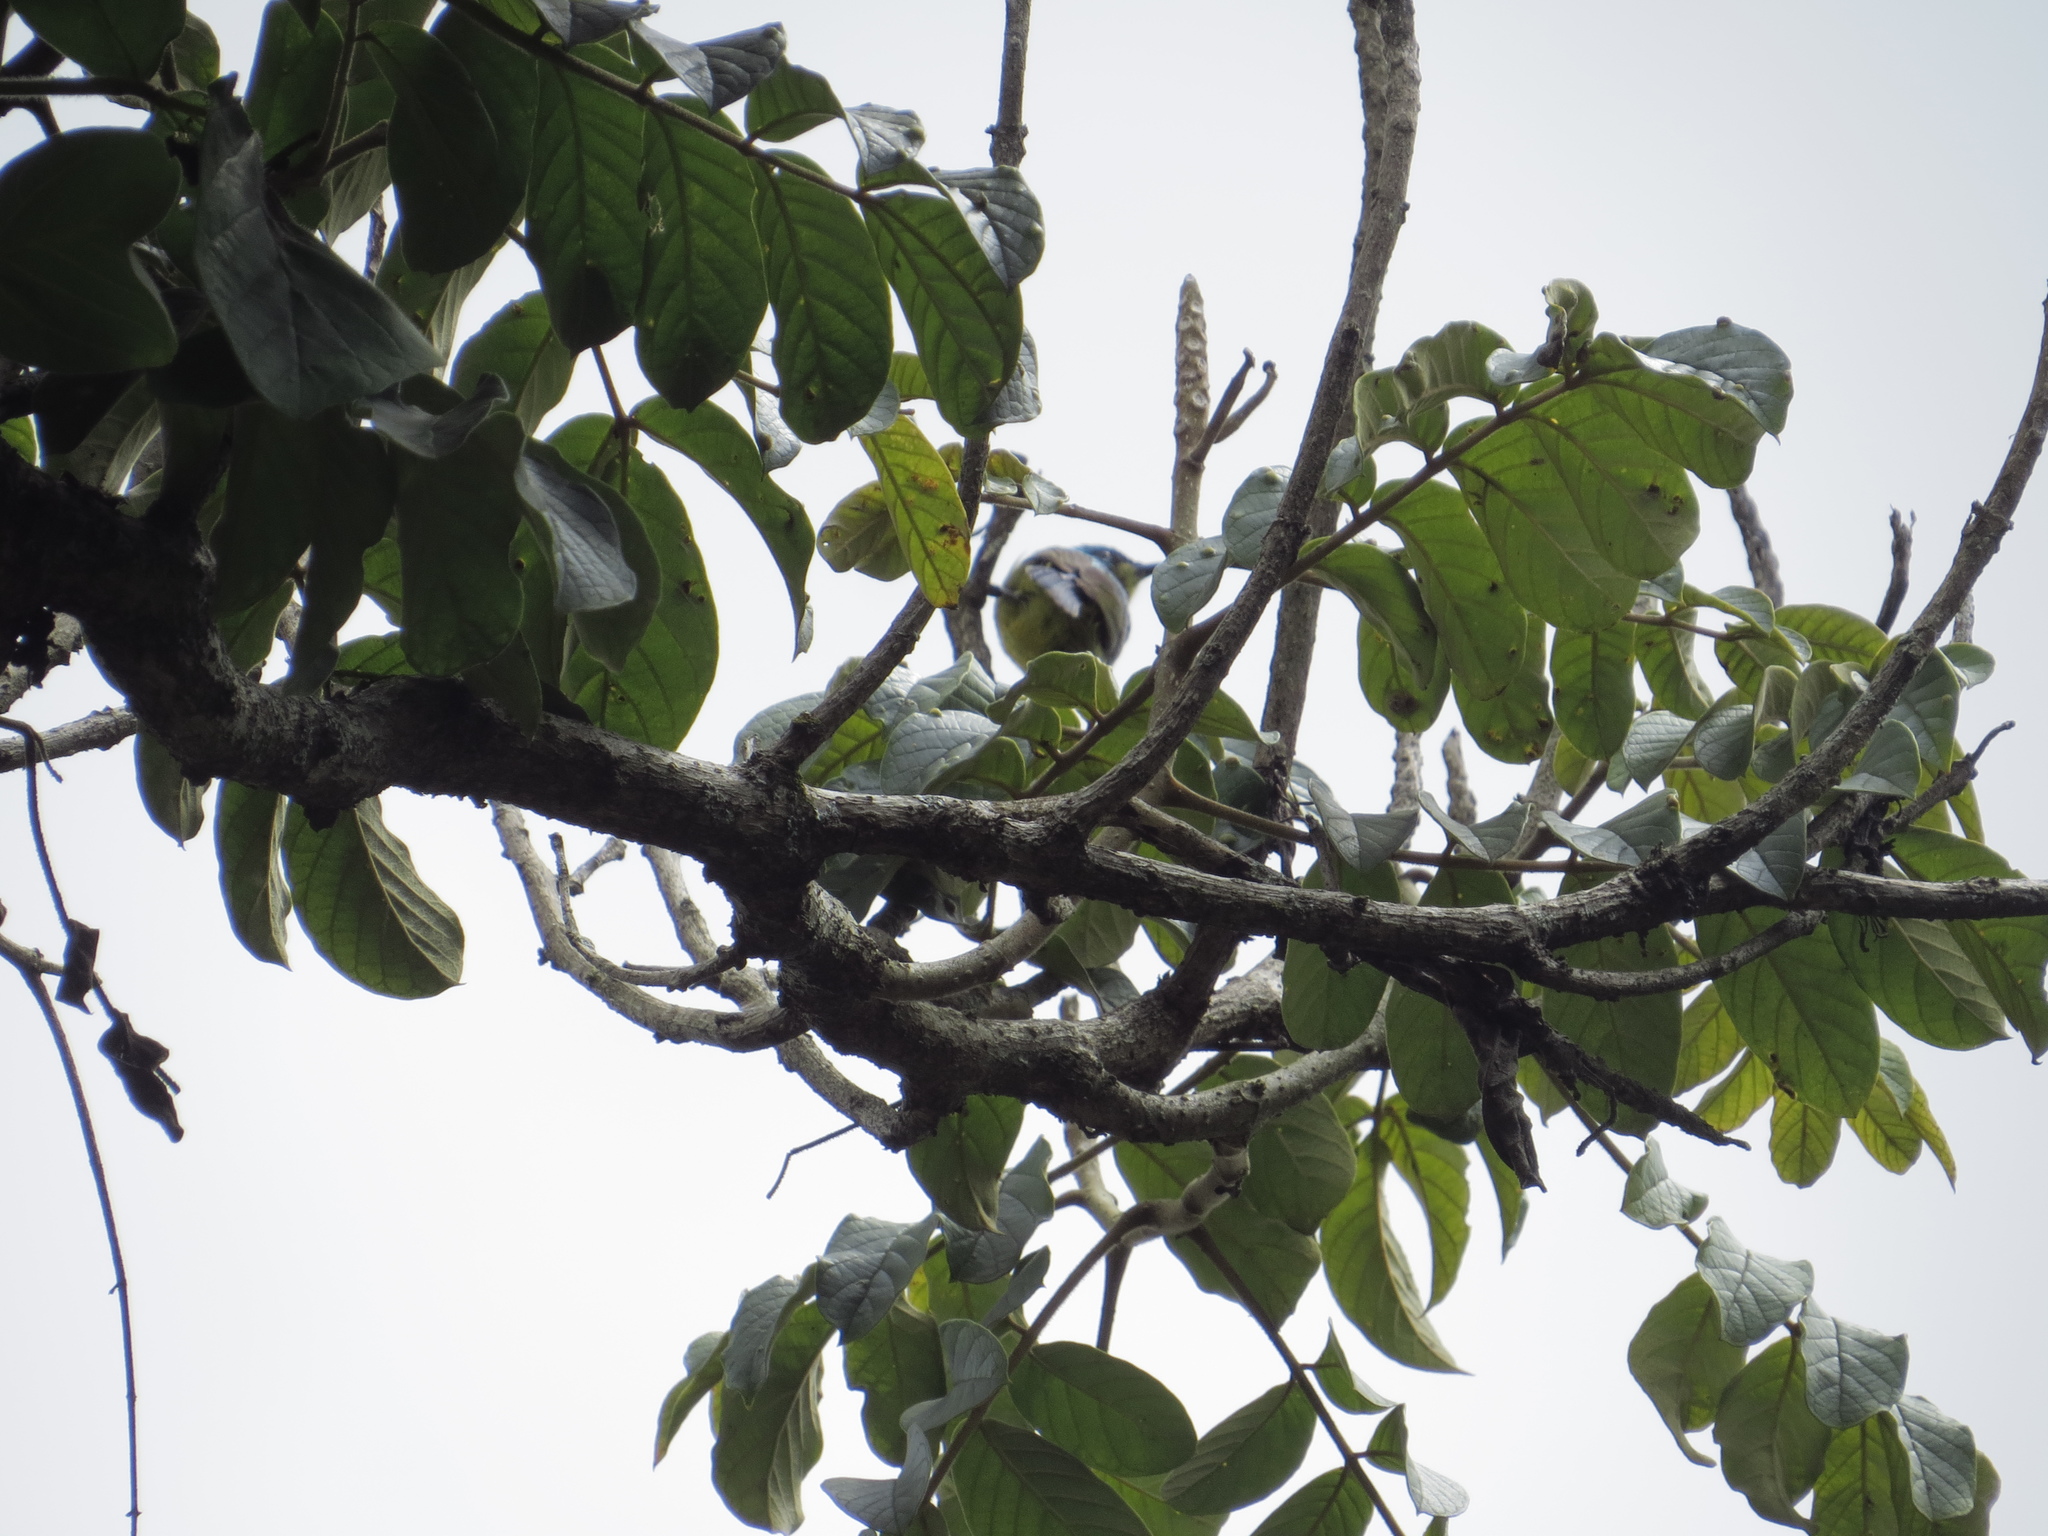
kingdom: Animalia
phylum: Chordata
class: Aves
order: Passeriformes
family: Nectariniidae
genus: Hedydipna
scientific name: Hedydipna collaris
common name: Collared sunbird
